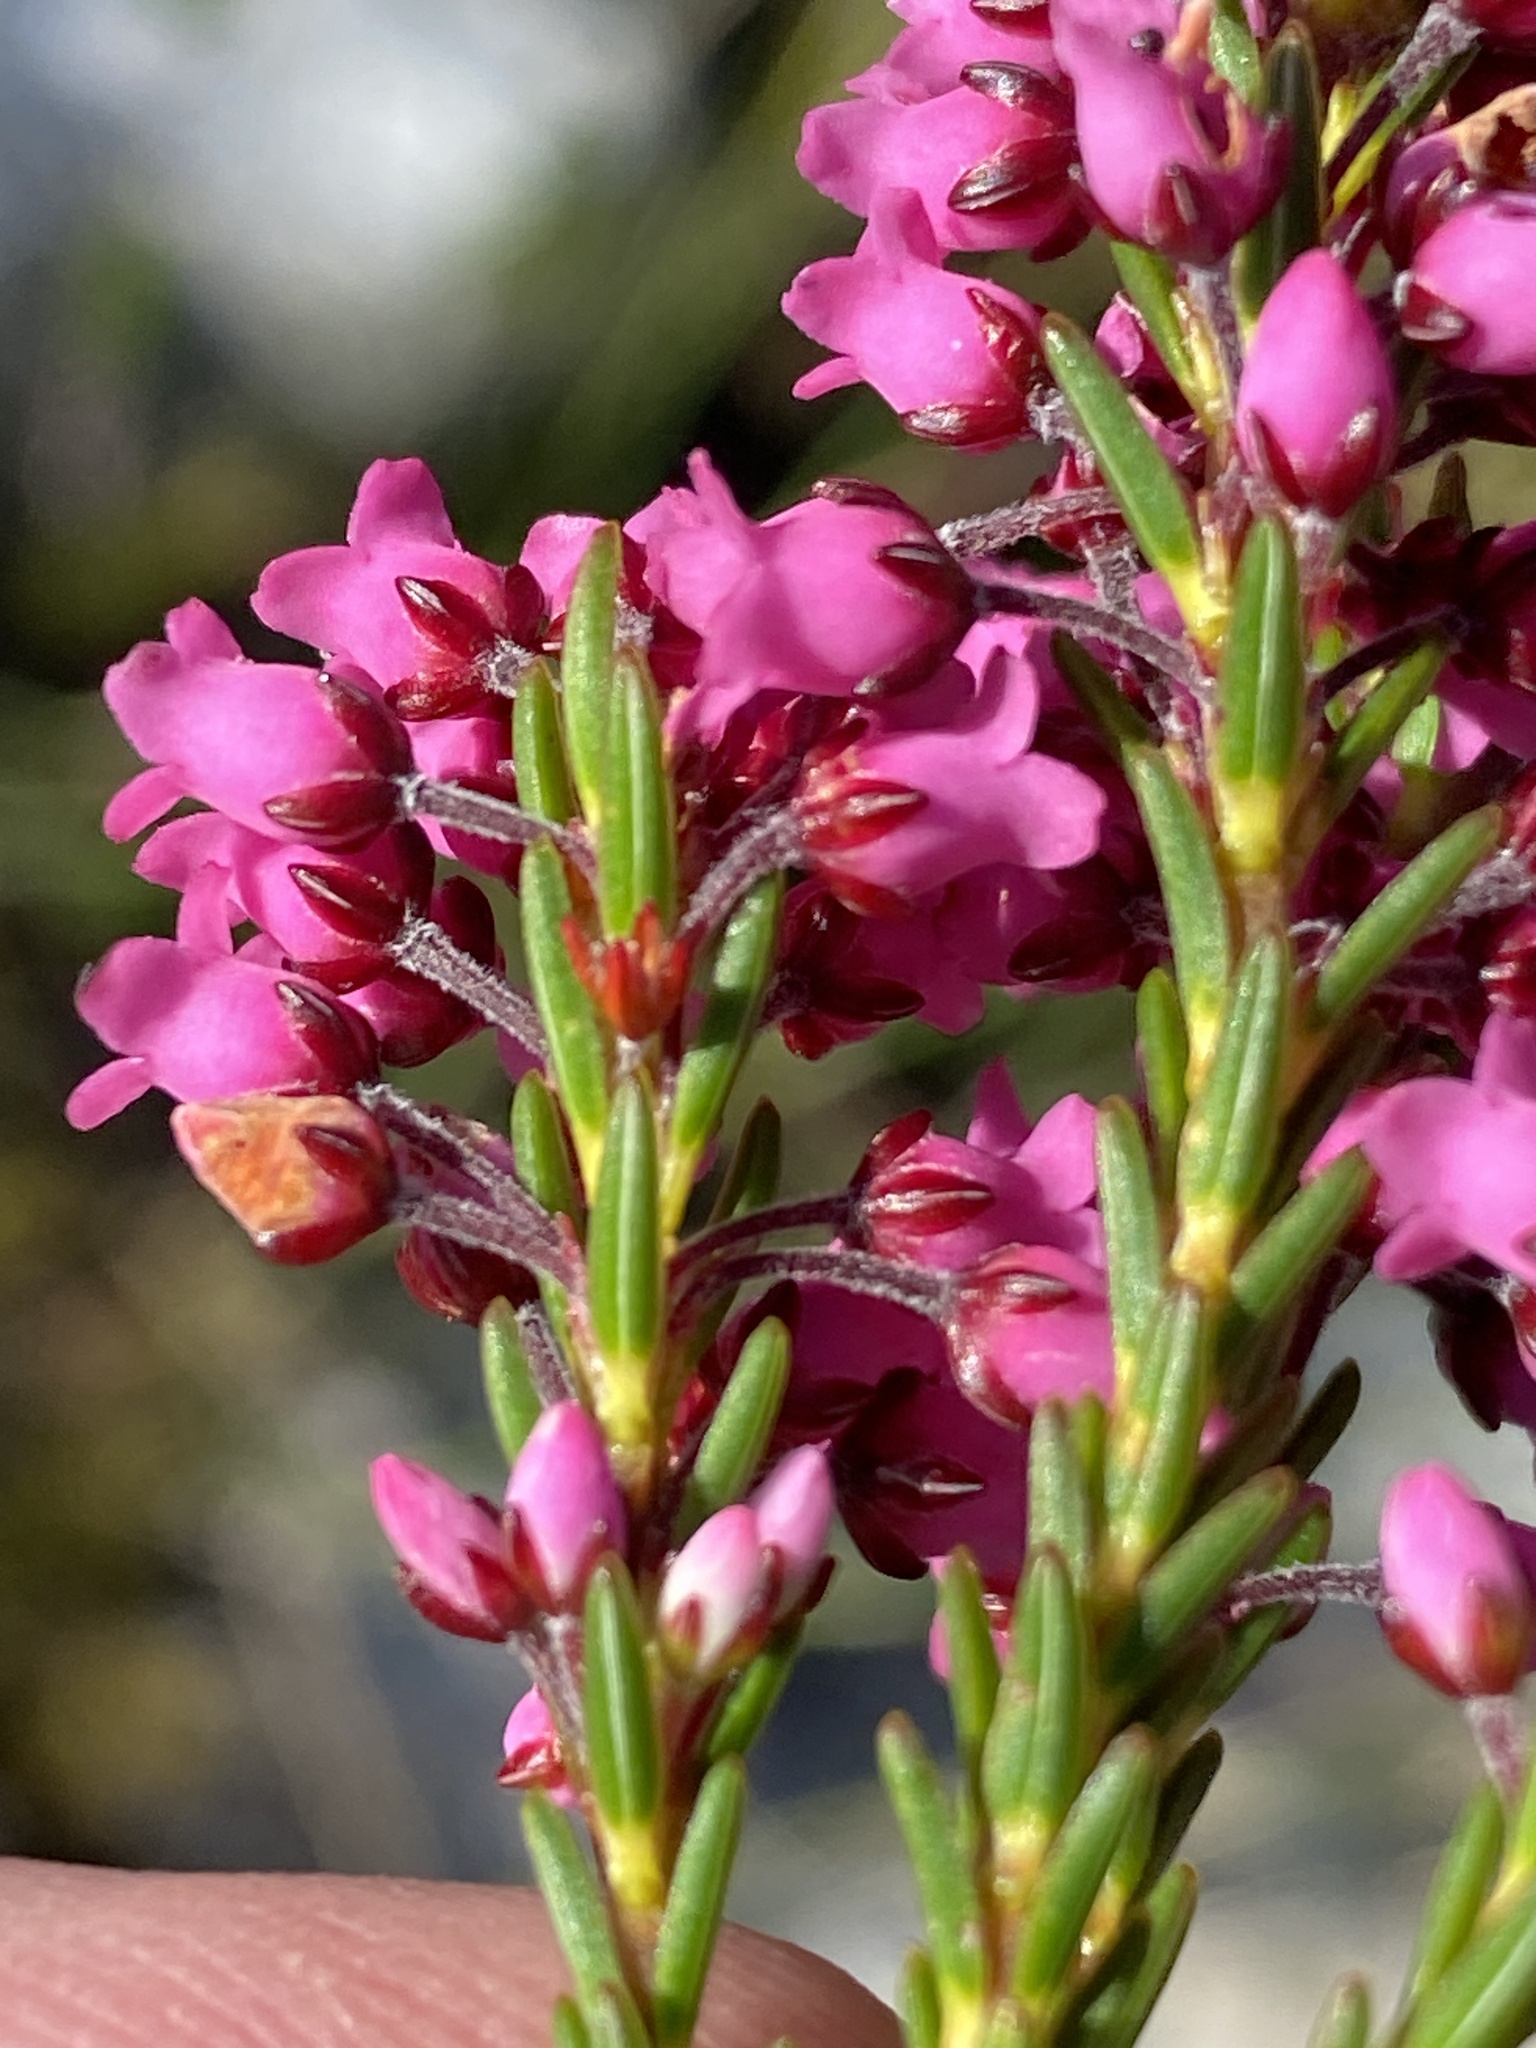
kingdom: Plantae
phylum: Tracheophyta
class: Magnoliopsida
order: Ericales
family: Ericaceae
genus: Erica
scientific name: Erica pulchella
